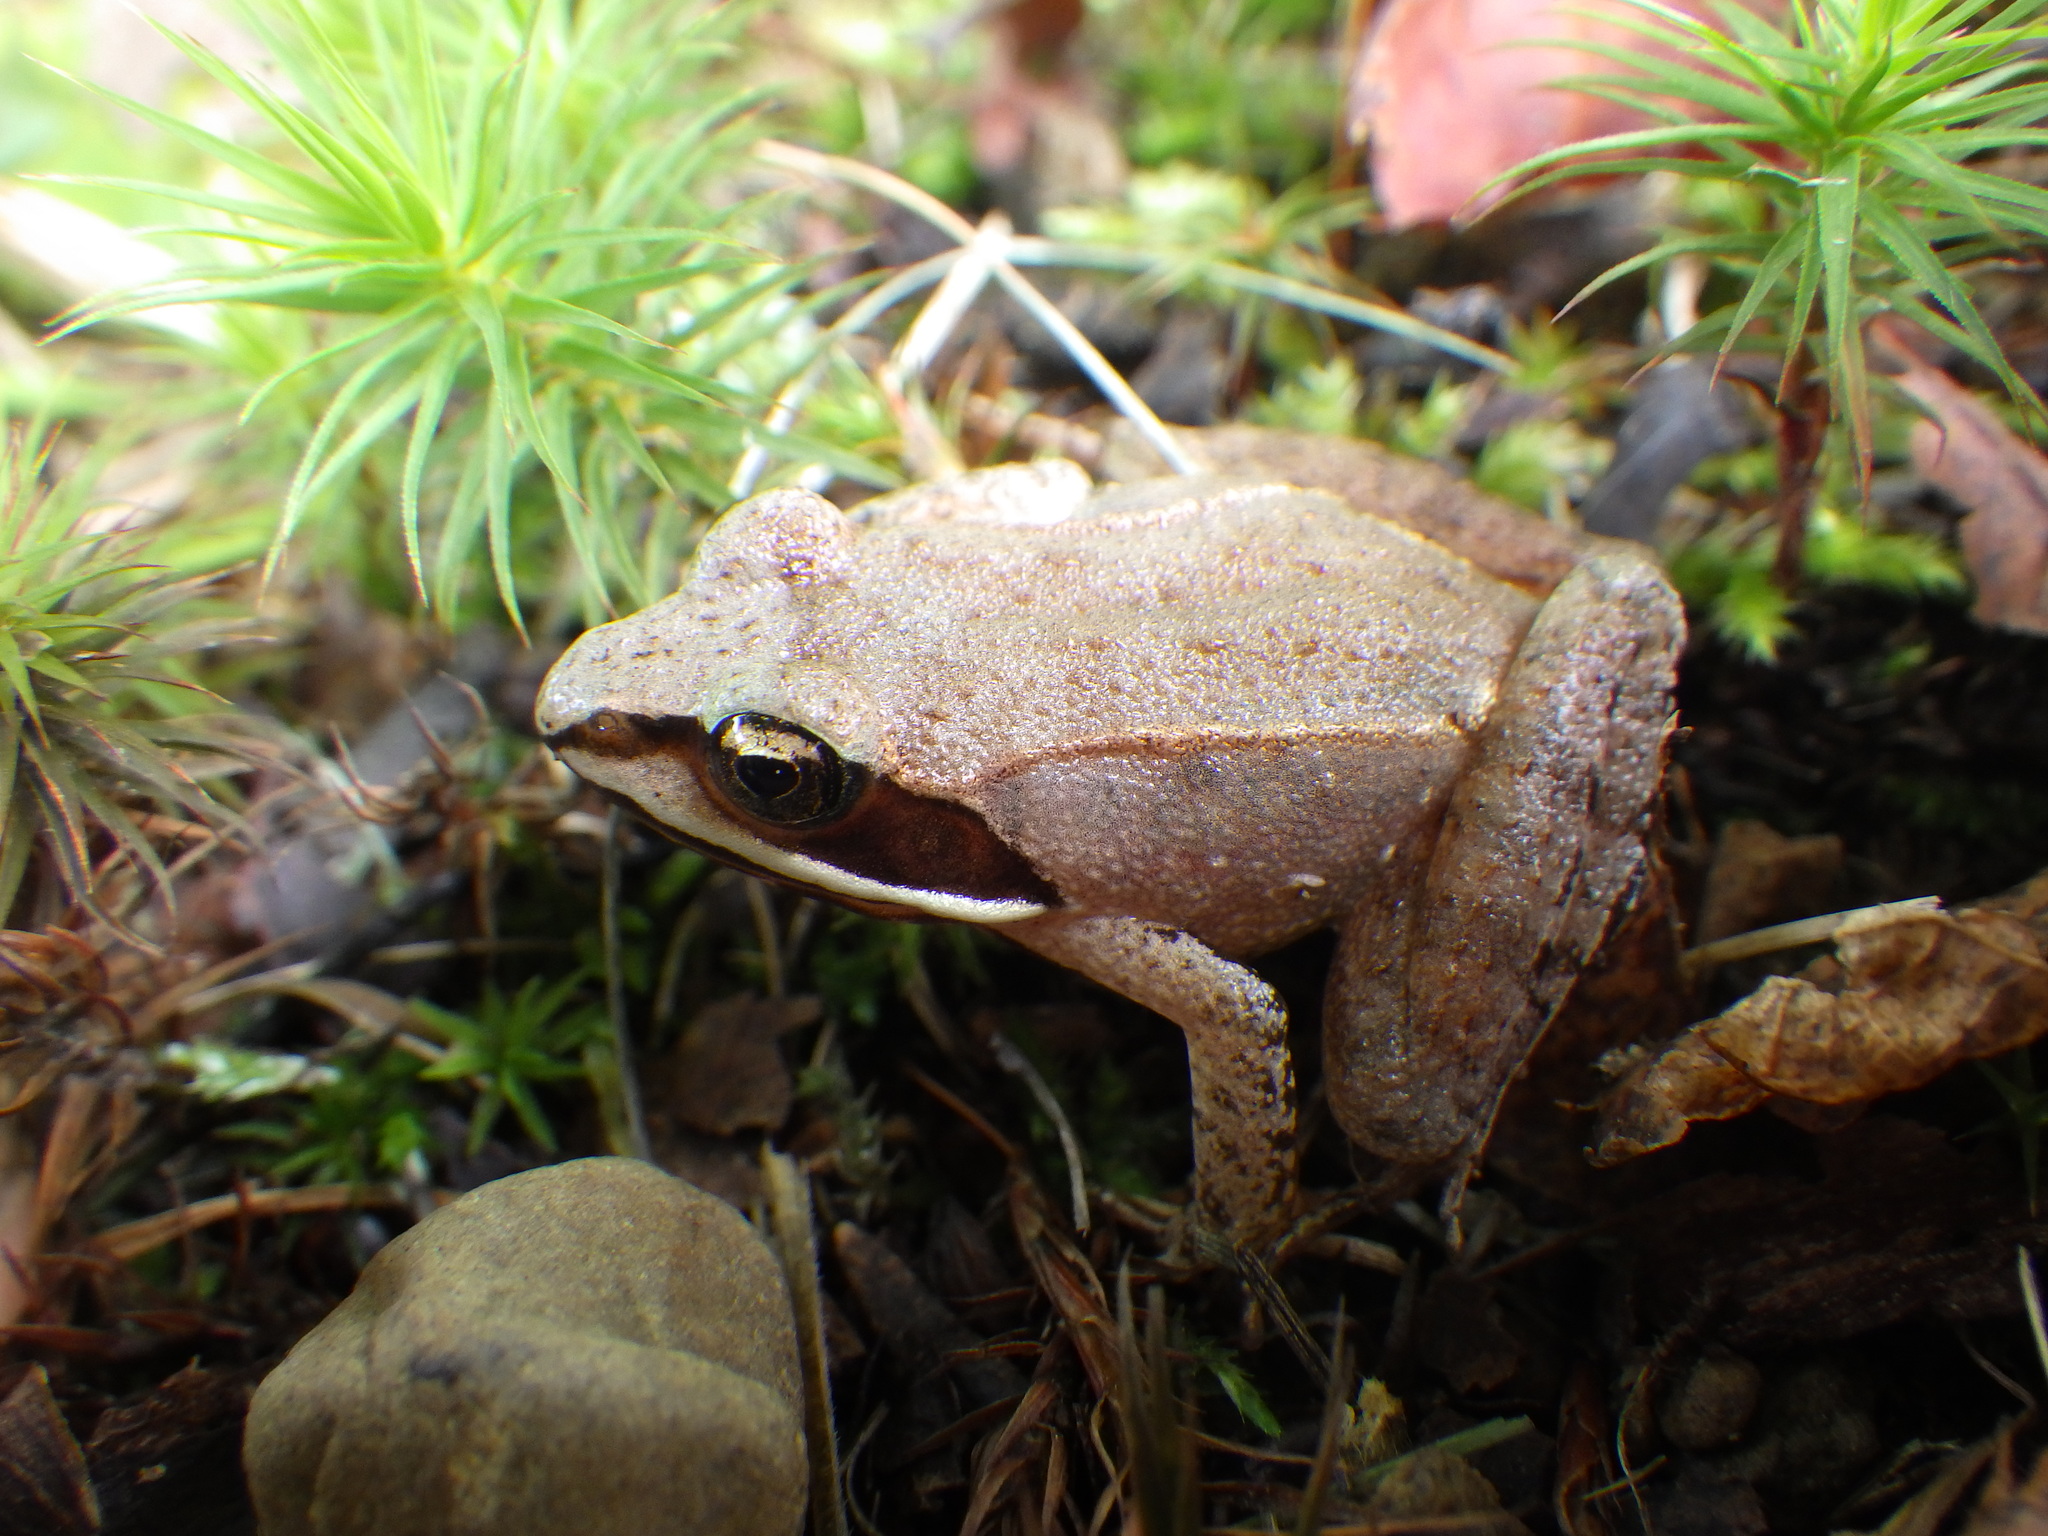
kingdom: Animalia
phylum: Chordata
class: Amphibia
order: Anura
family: Ranidae
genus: Lithobates
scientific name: Lithobates sylvaticus
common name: Wood frog
